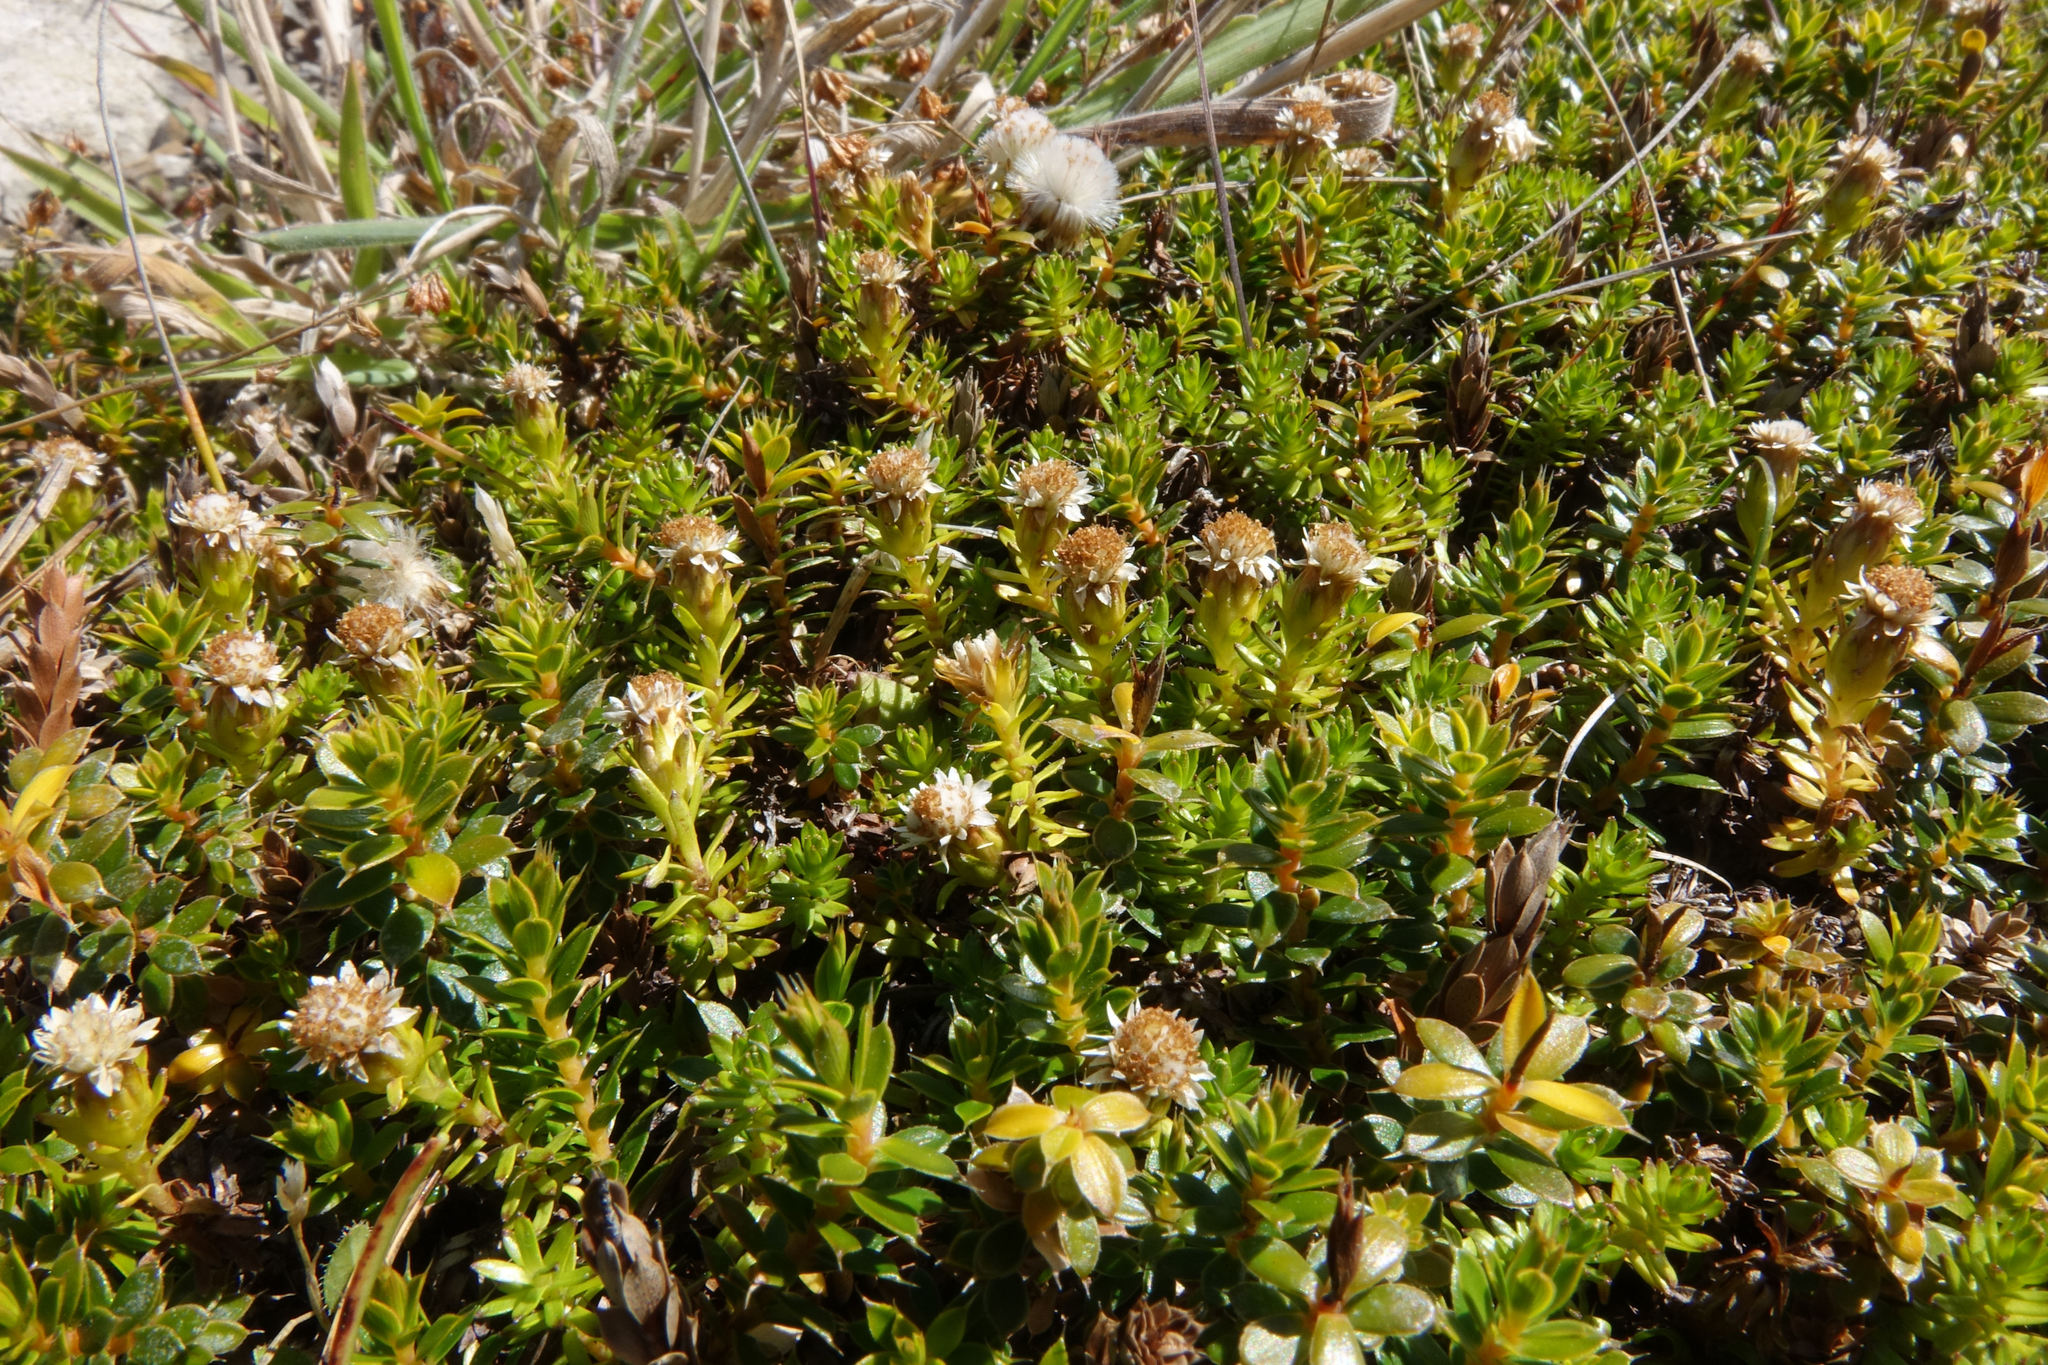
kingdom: Plantae
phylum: Tracheophyta
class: Magnoliopsida
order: Asterales
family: Asteraceae
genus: Raoulia
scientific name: Raoulia glabra
